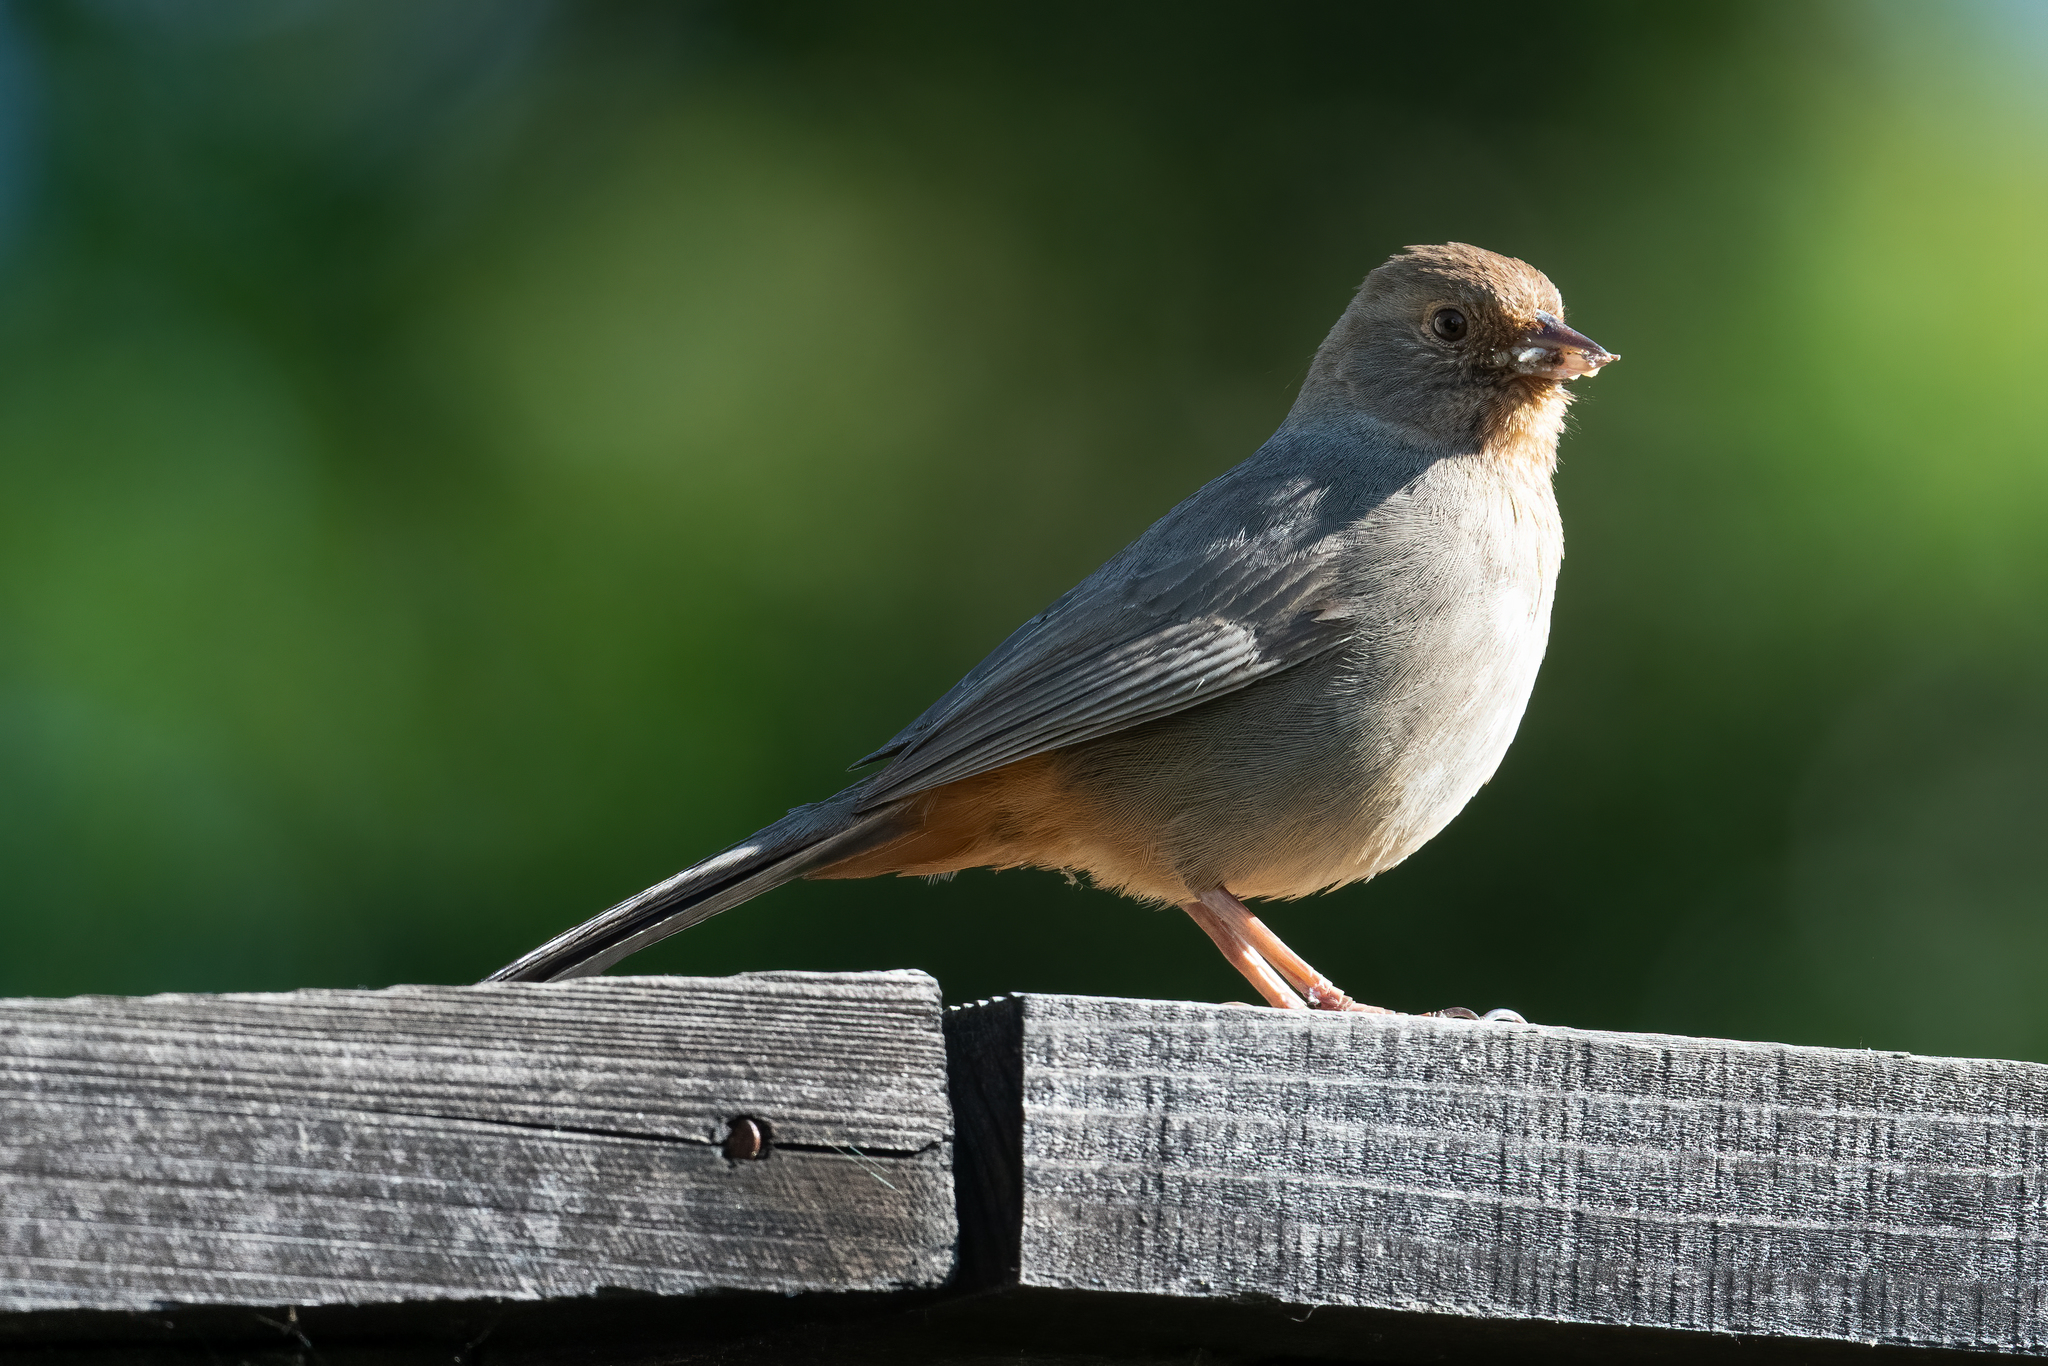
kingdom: Animalia
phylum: Chordata
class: Aves
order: Passeriformes
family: Passerellidae
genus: Melozone
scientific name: Melozone crissalis
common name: California towhee
